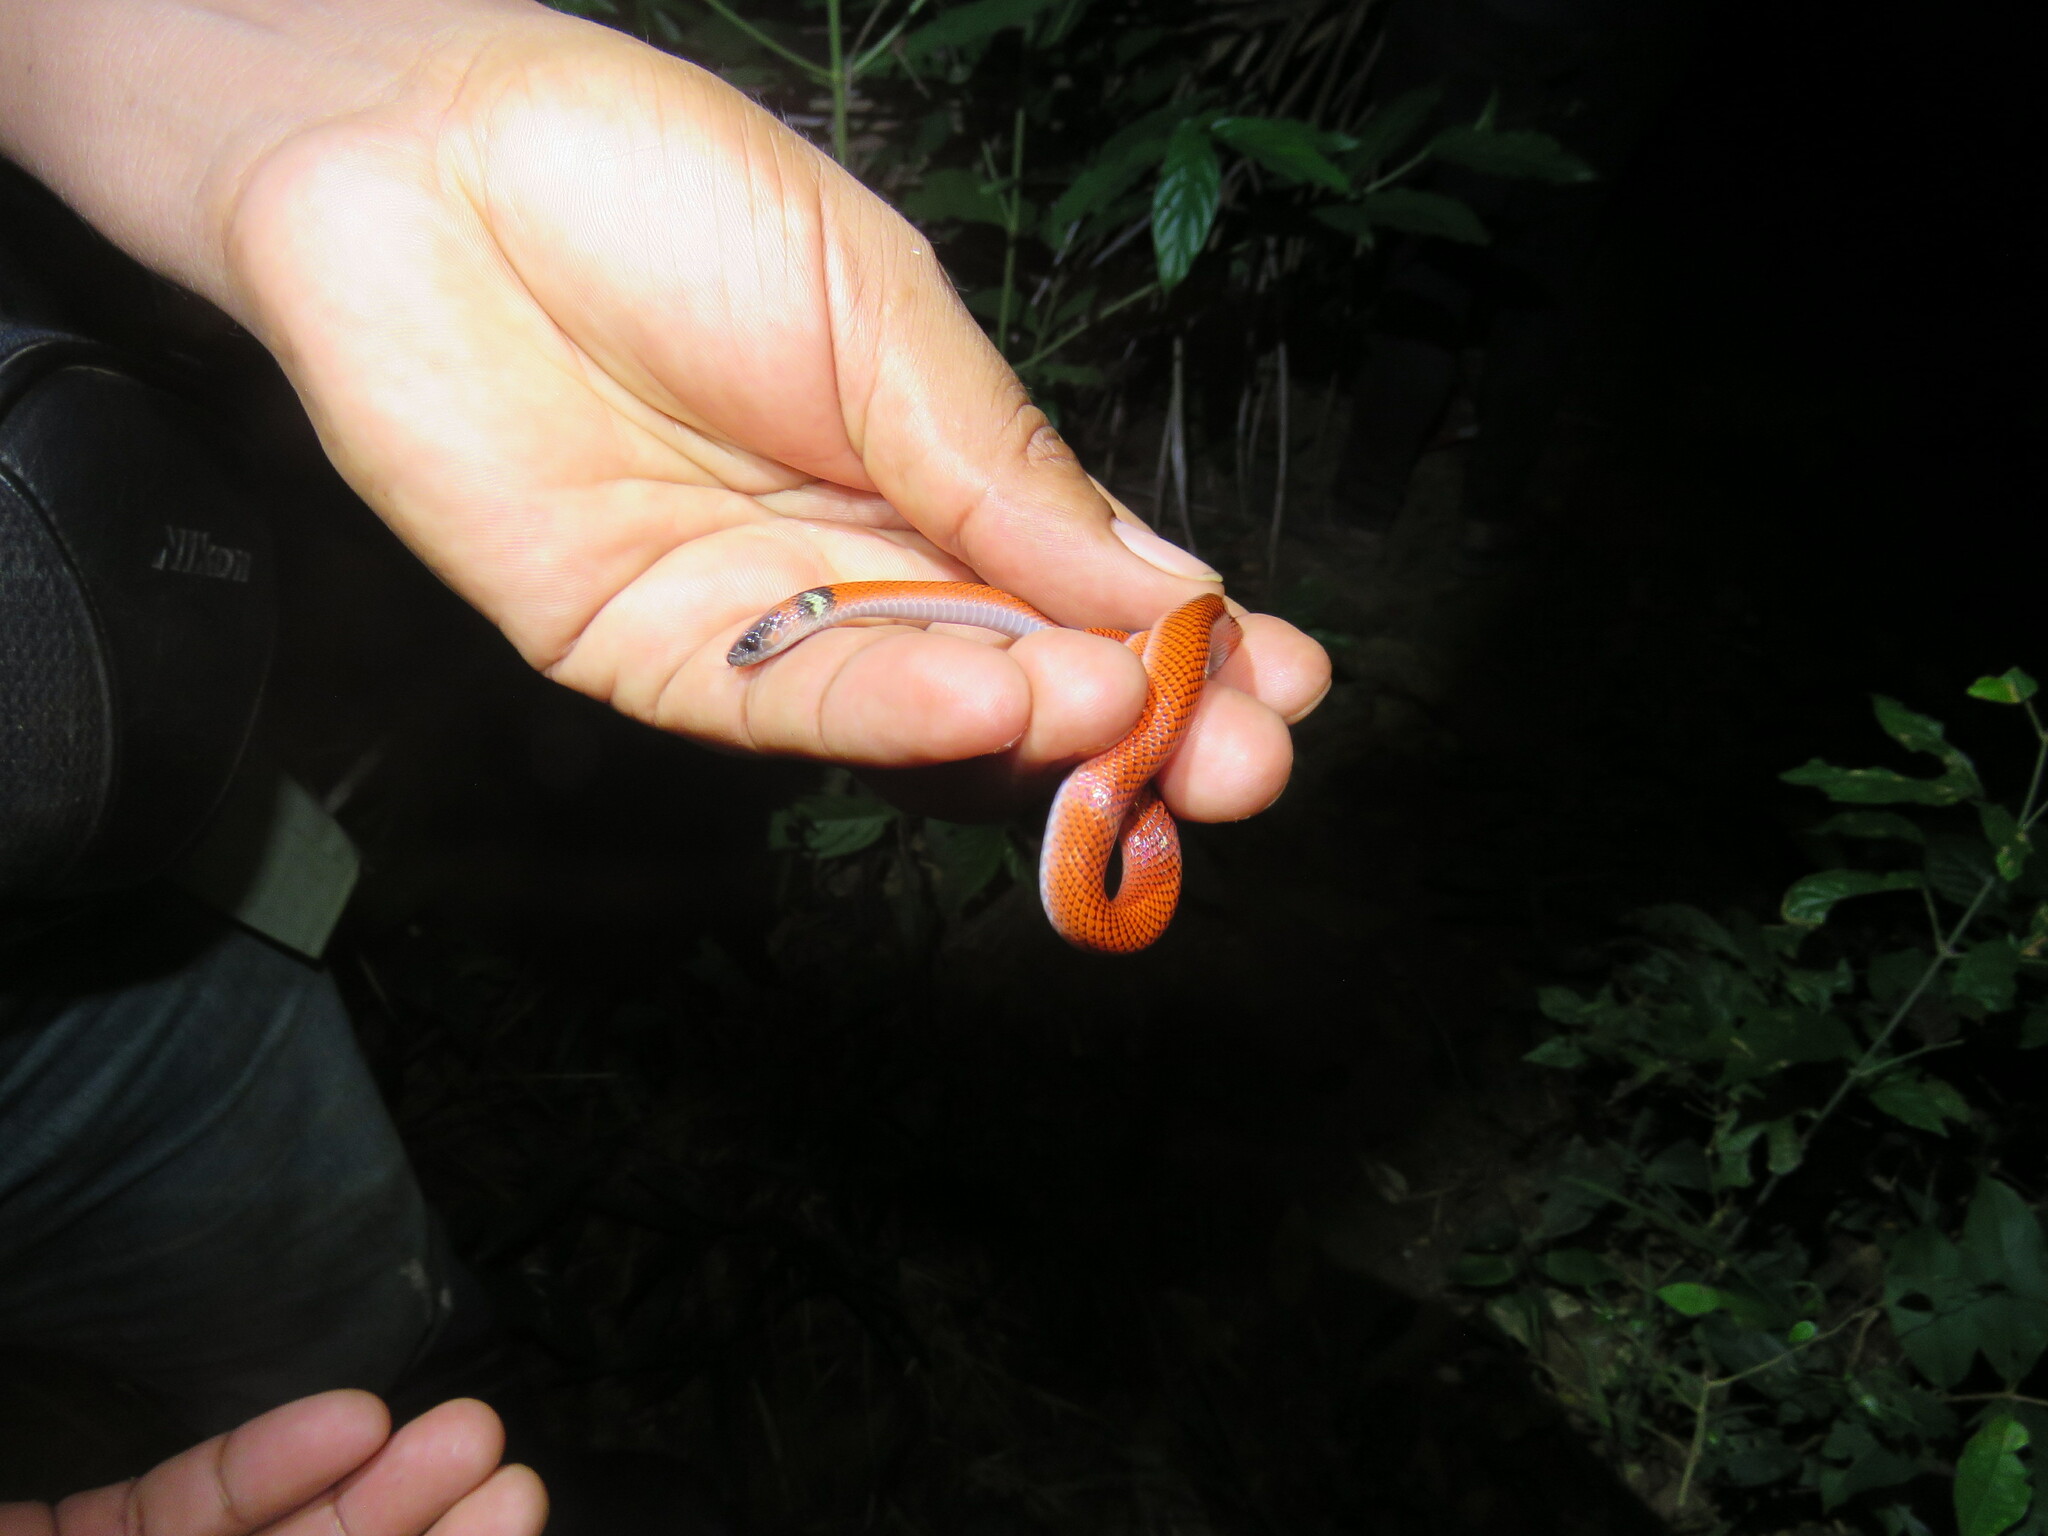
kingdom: Animalia
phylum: Chordata
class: Squamata
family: Colubridae
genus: Oxyrhopus
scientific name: Oxyrhopus melanogenys
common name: Tschudi's false coral snake
